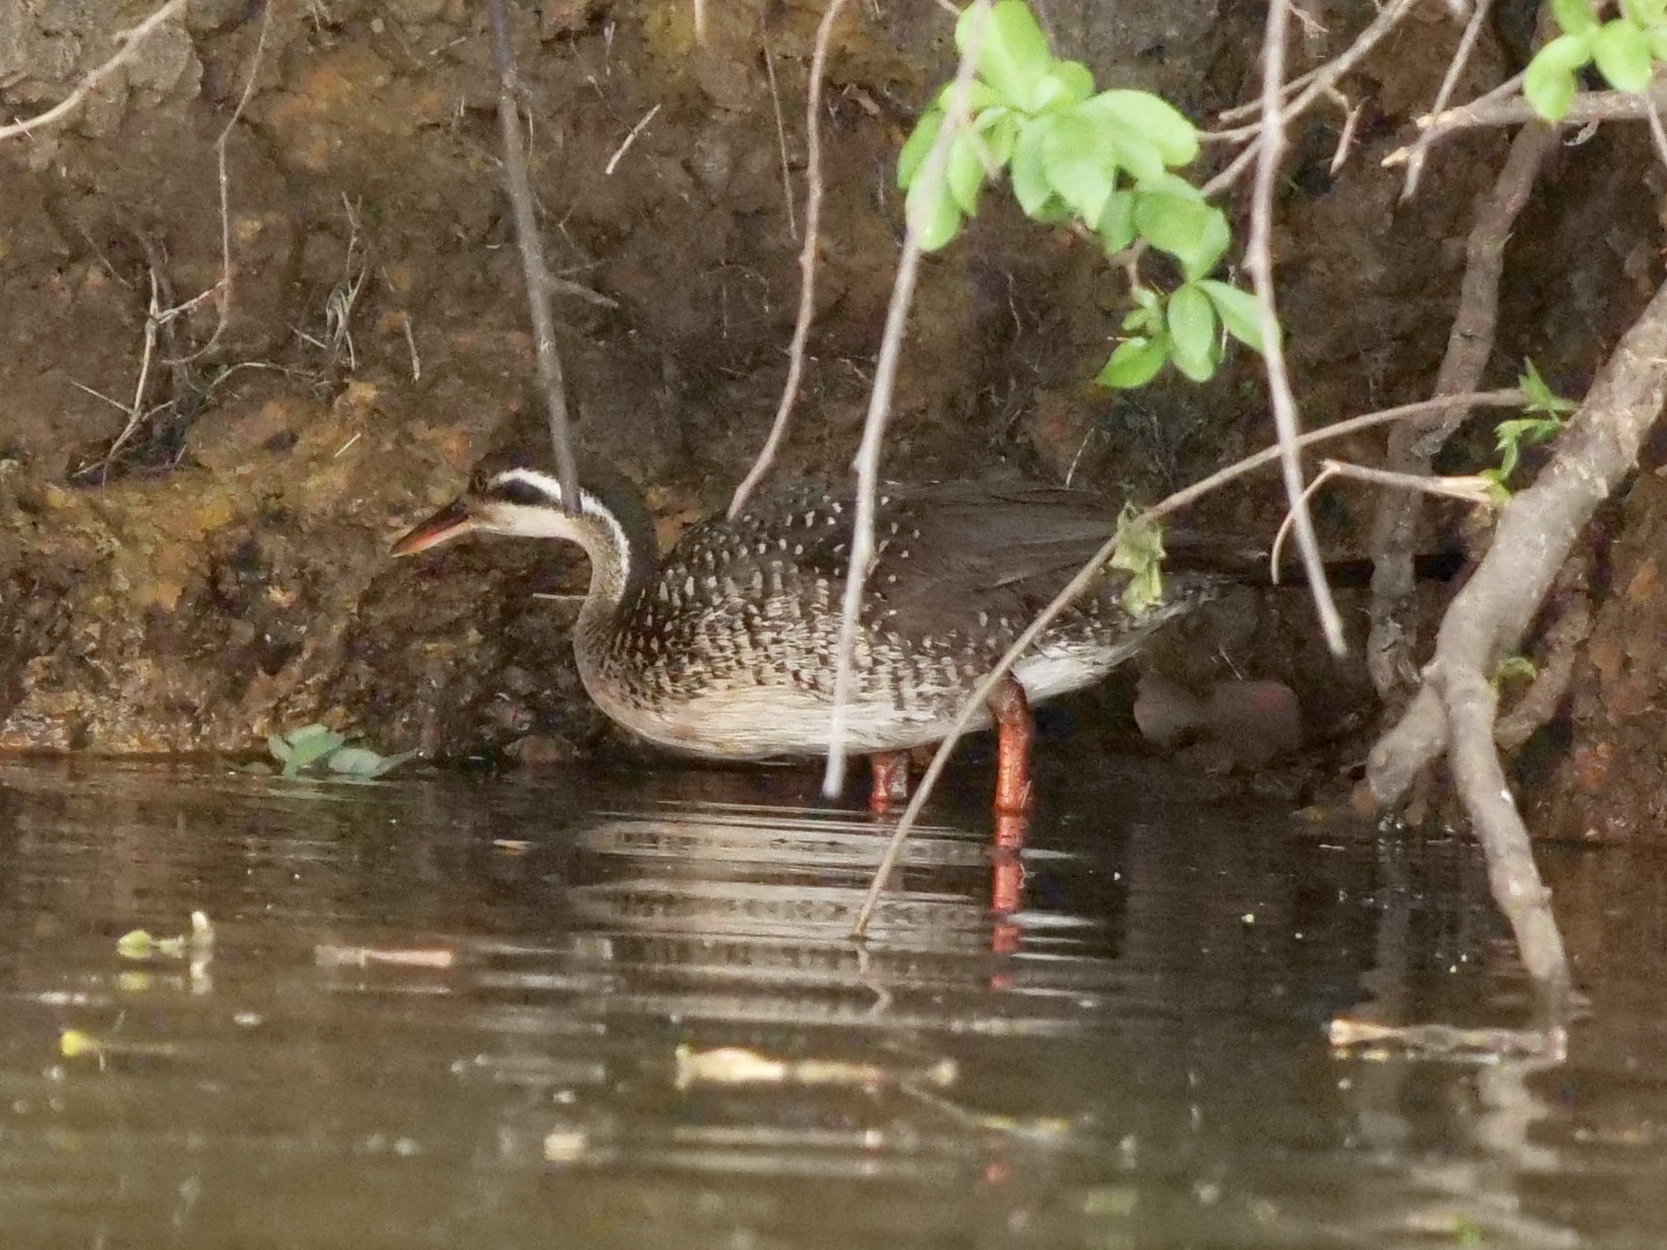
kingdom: Animalia
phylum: Chordata
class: Aves
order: Gruiformes
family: Heliornithidae
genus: Podica
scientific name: Podica senegalensis
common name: African finfoot
